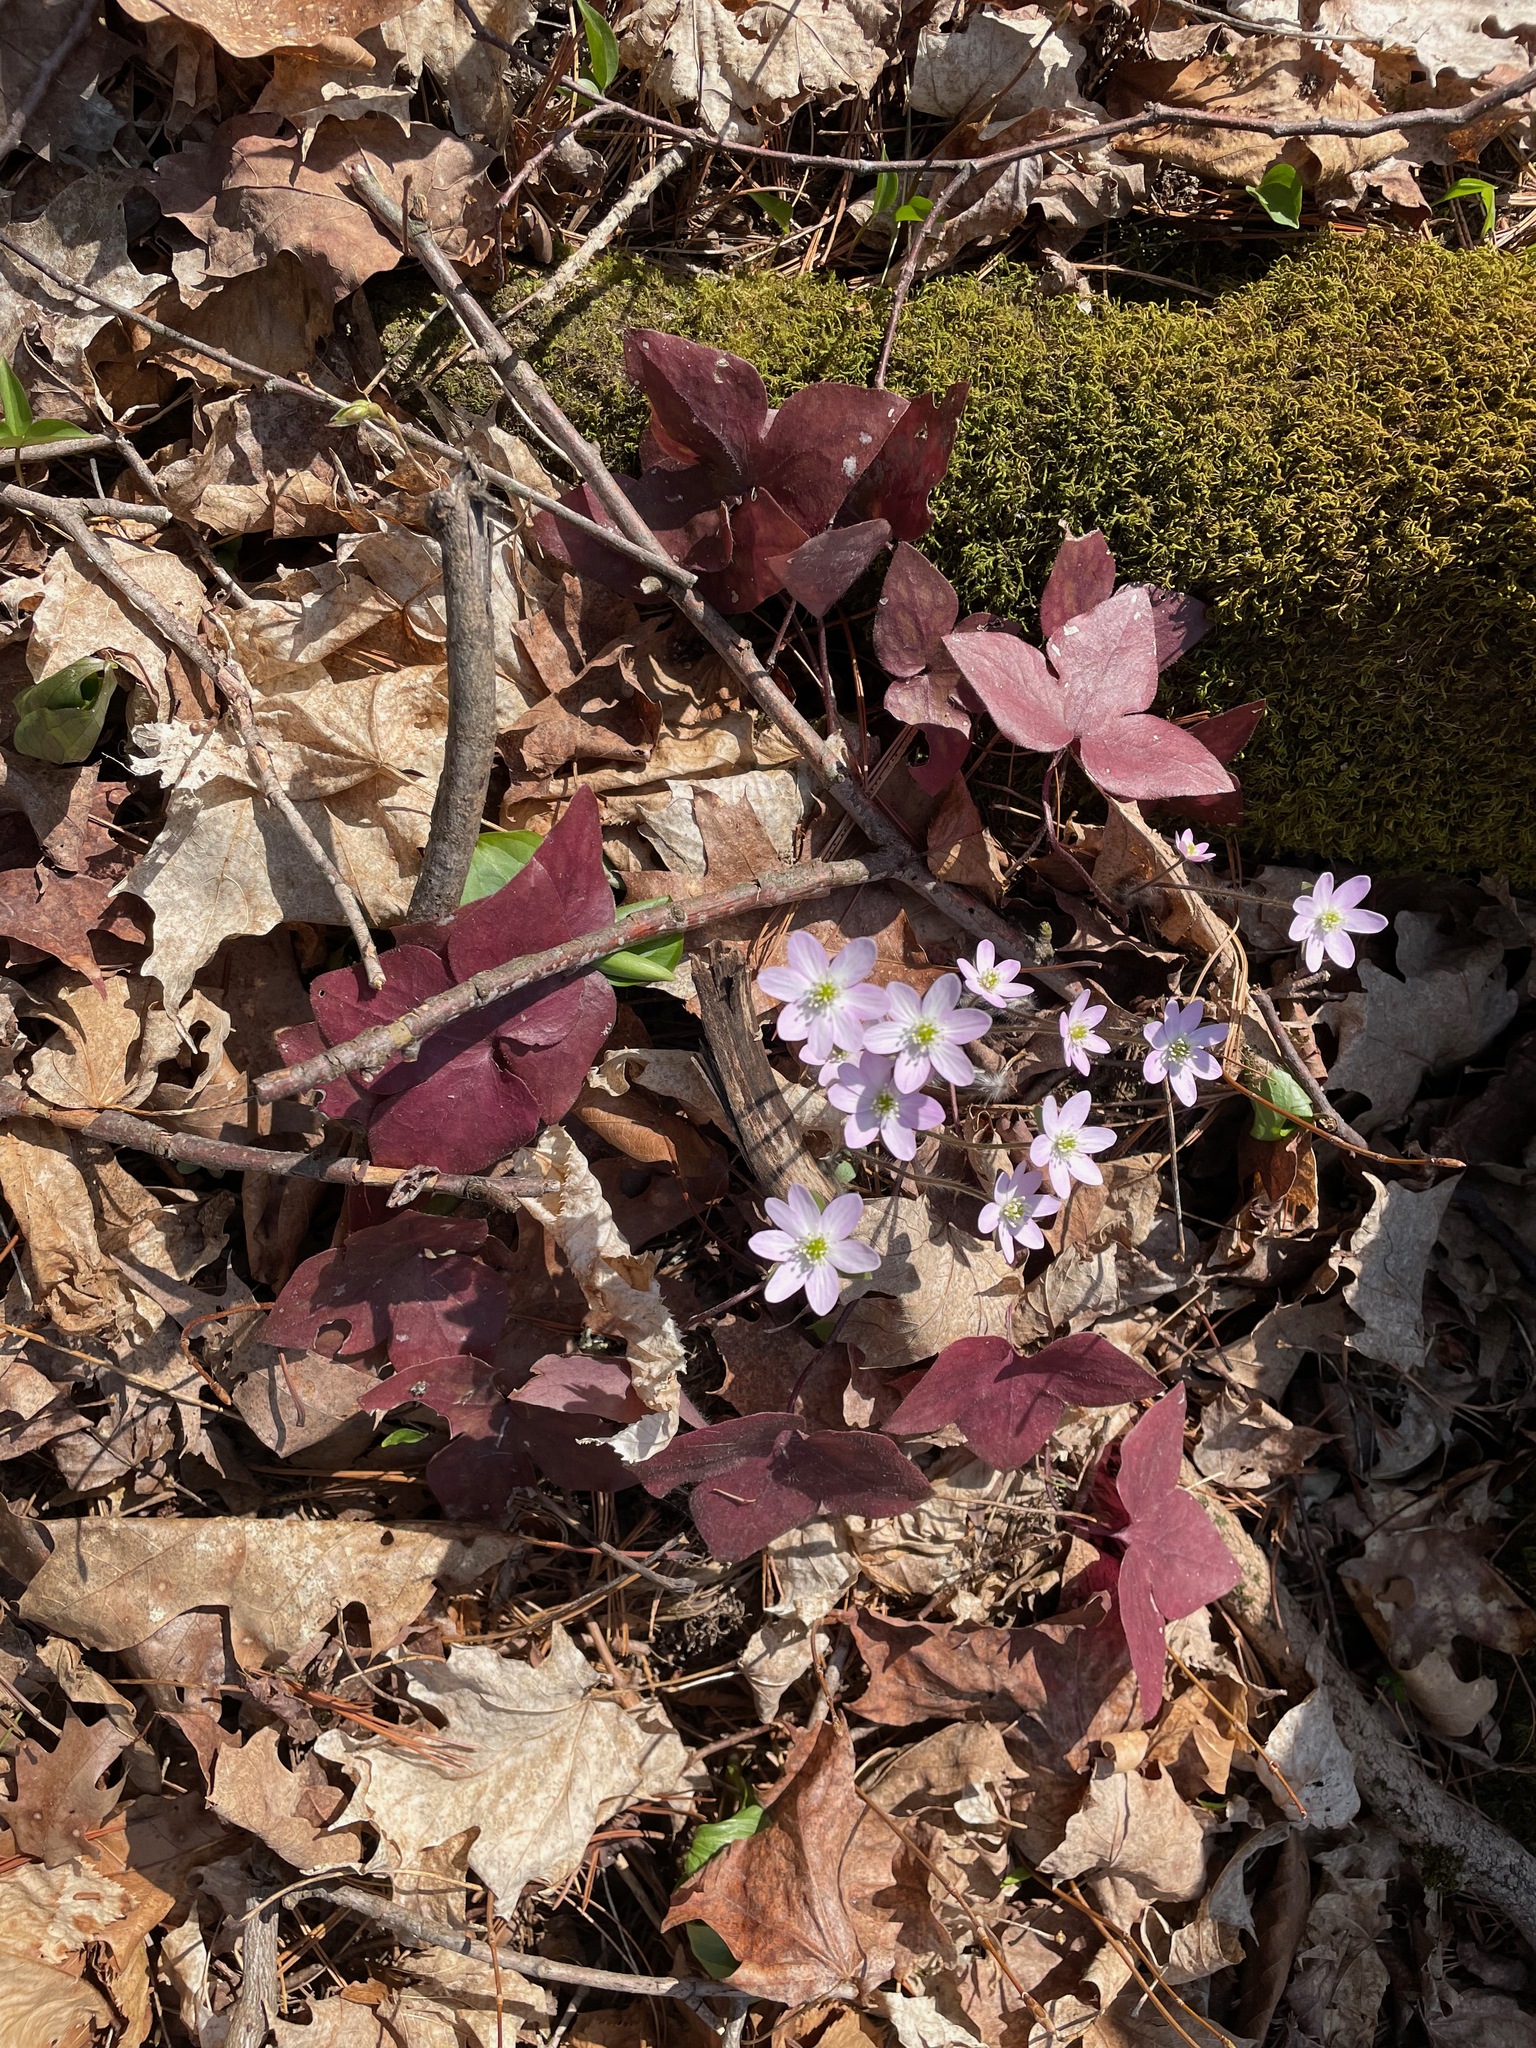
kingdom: Plantae
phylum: Tracheophyta
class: Magnoliopsida
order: Ranunculales
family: Ranunculaceae
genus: Hepatica
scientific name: Hepatica acutiloba
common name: Sharp-lobed hepatica
